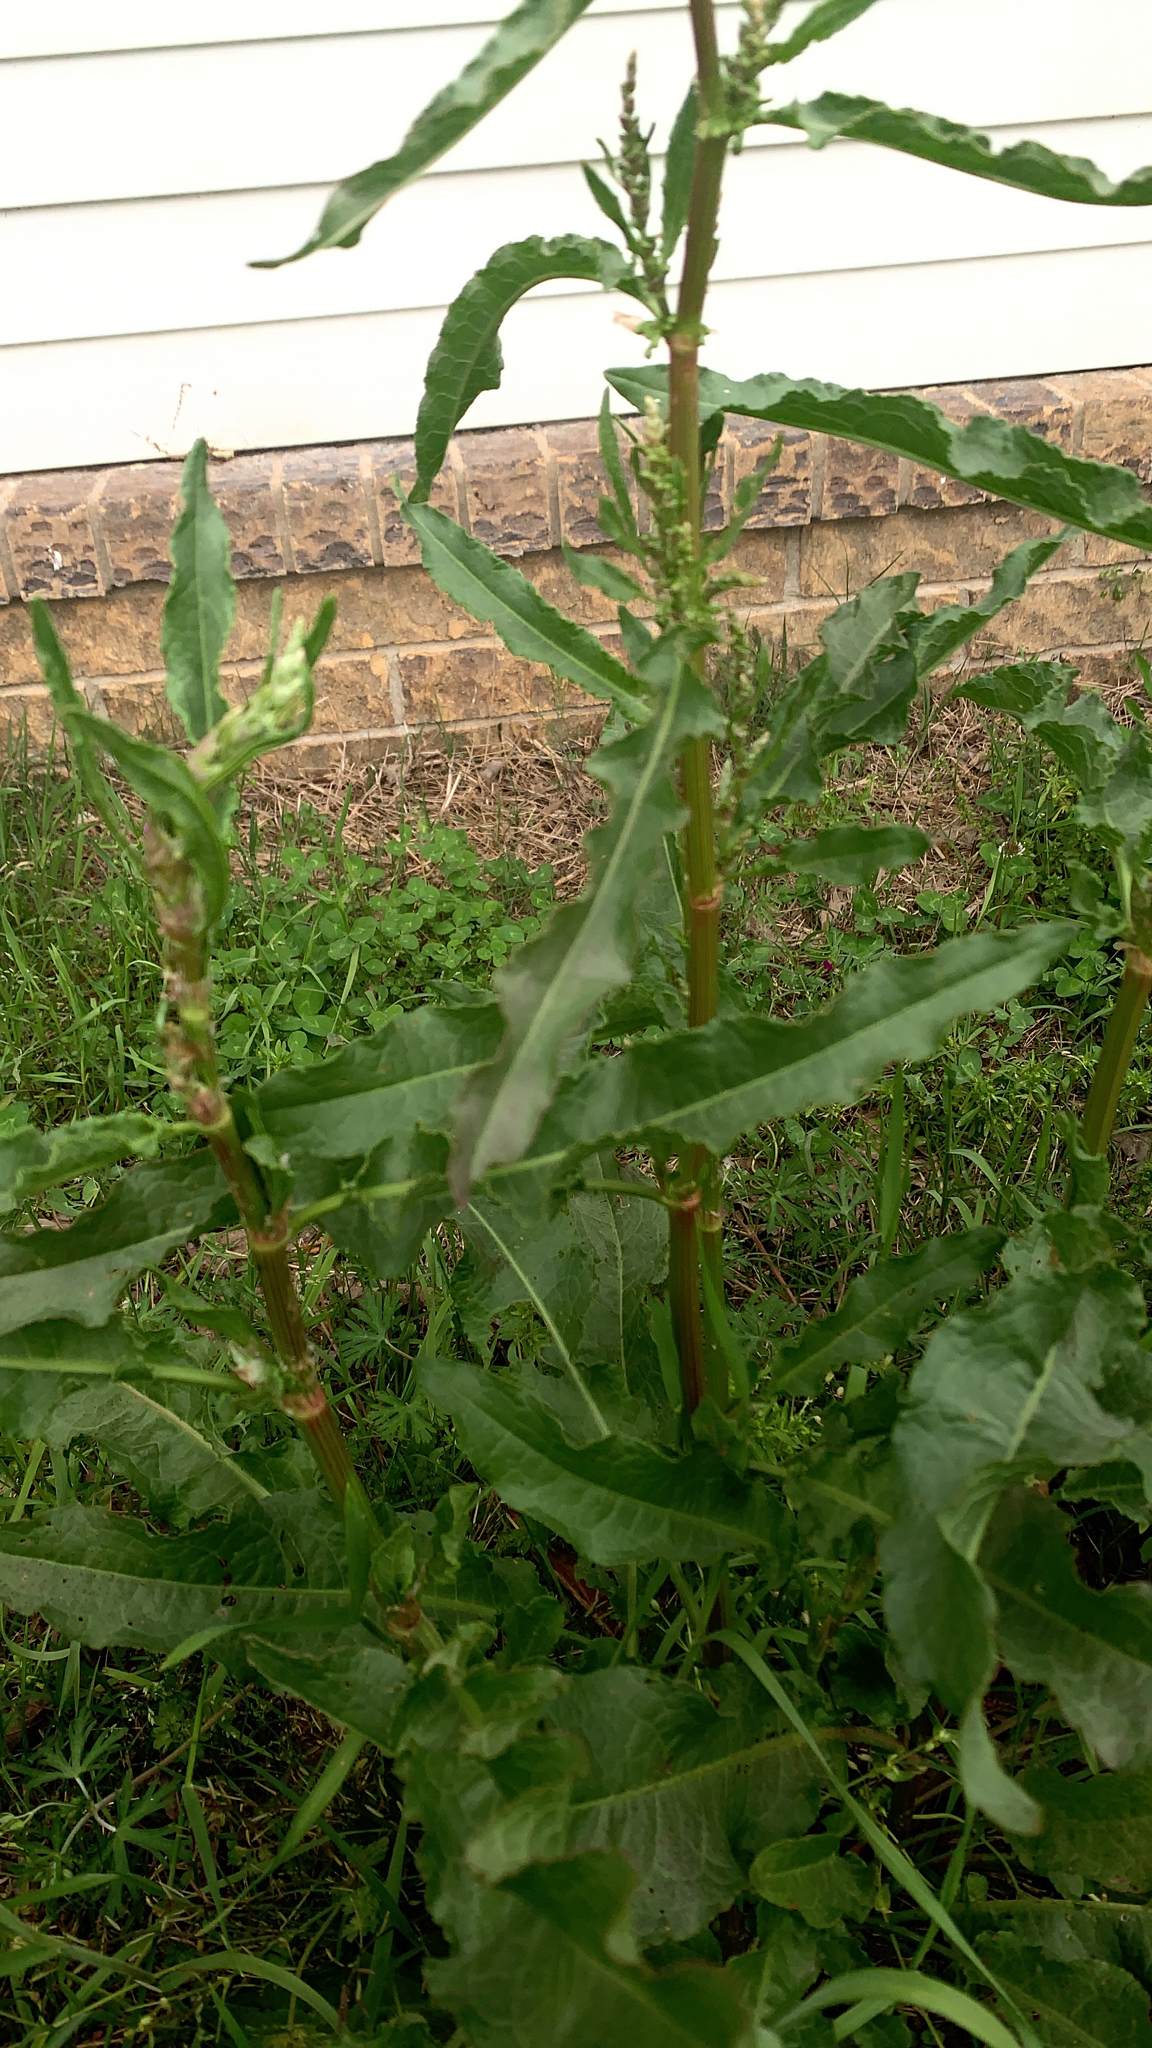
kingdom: Plantae
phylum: Tracheophyta
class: Magnoliopsida
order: Caryophyllales
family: Polygonaceae
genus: Rumex
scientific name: Rumex crispus
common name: Curled dock
